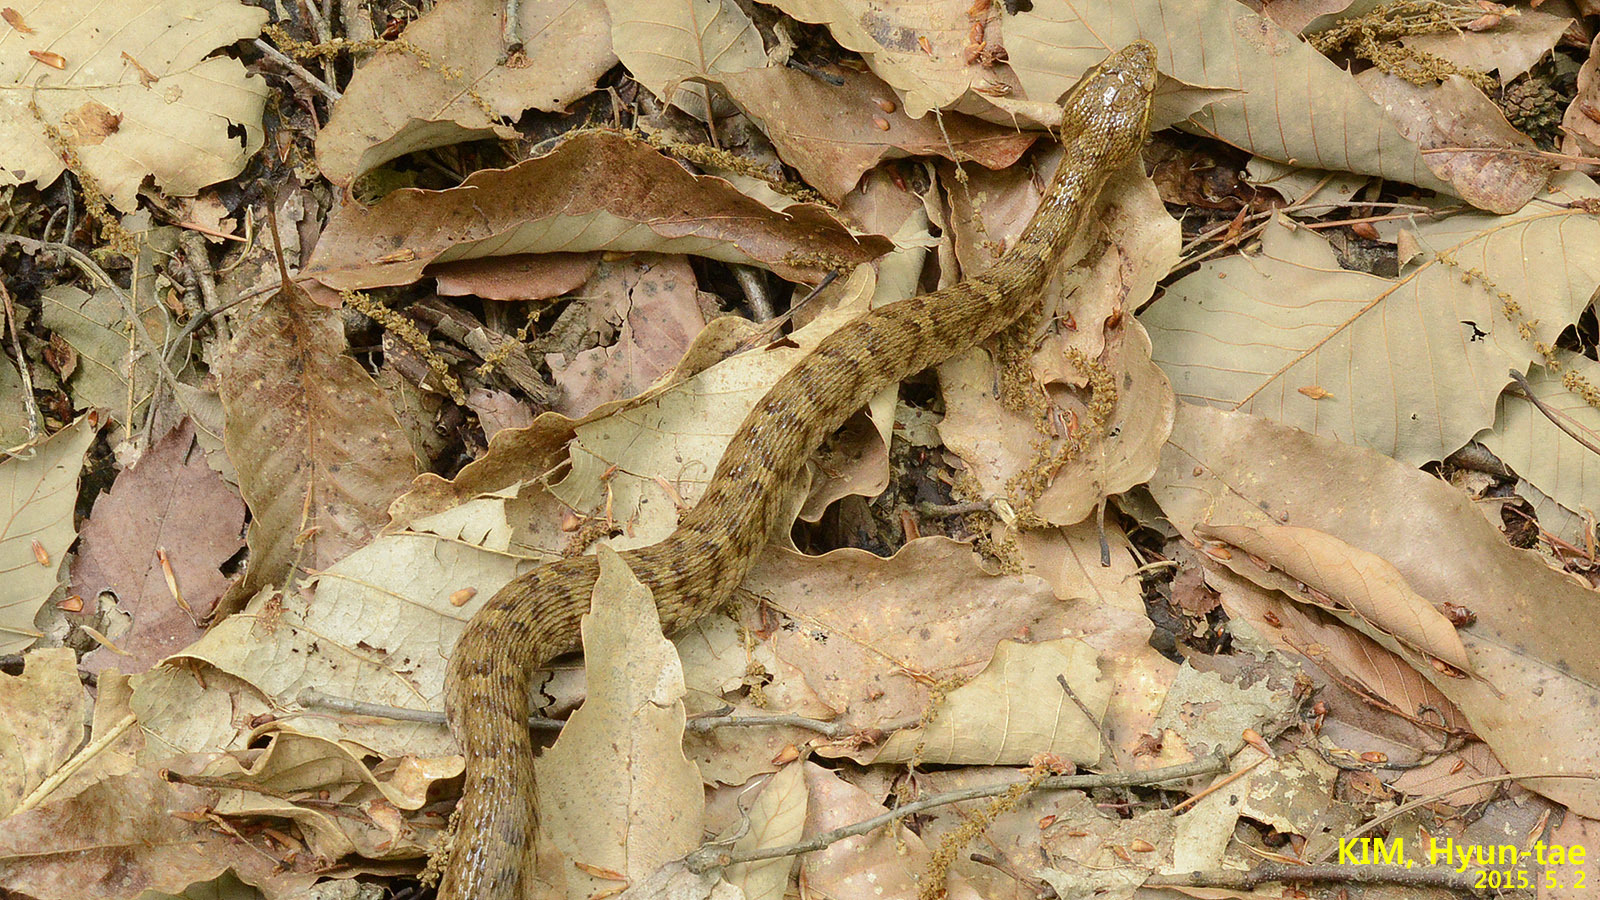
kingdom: Animalia
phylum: Chordata
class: Squamata
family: Viperidae
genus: Gloydius
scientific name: Gloydius ussuriensis
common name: Ussuri mamushi
